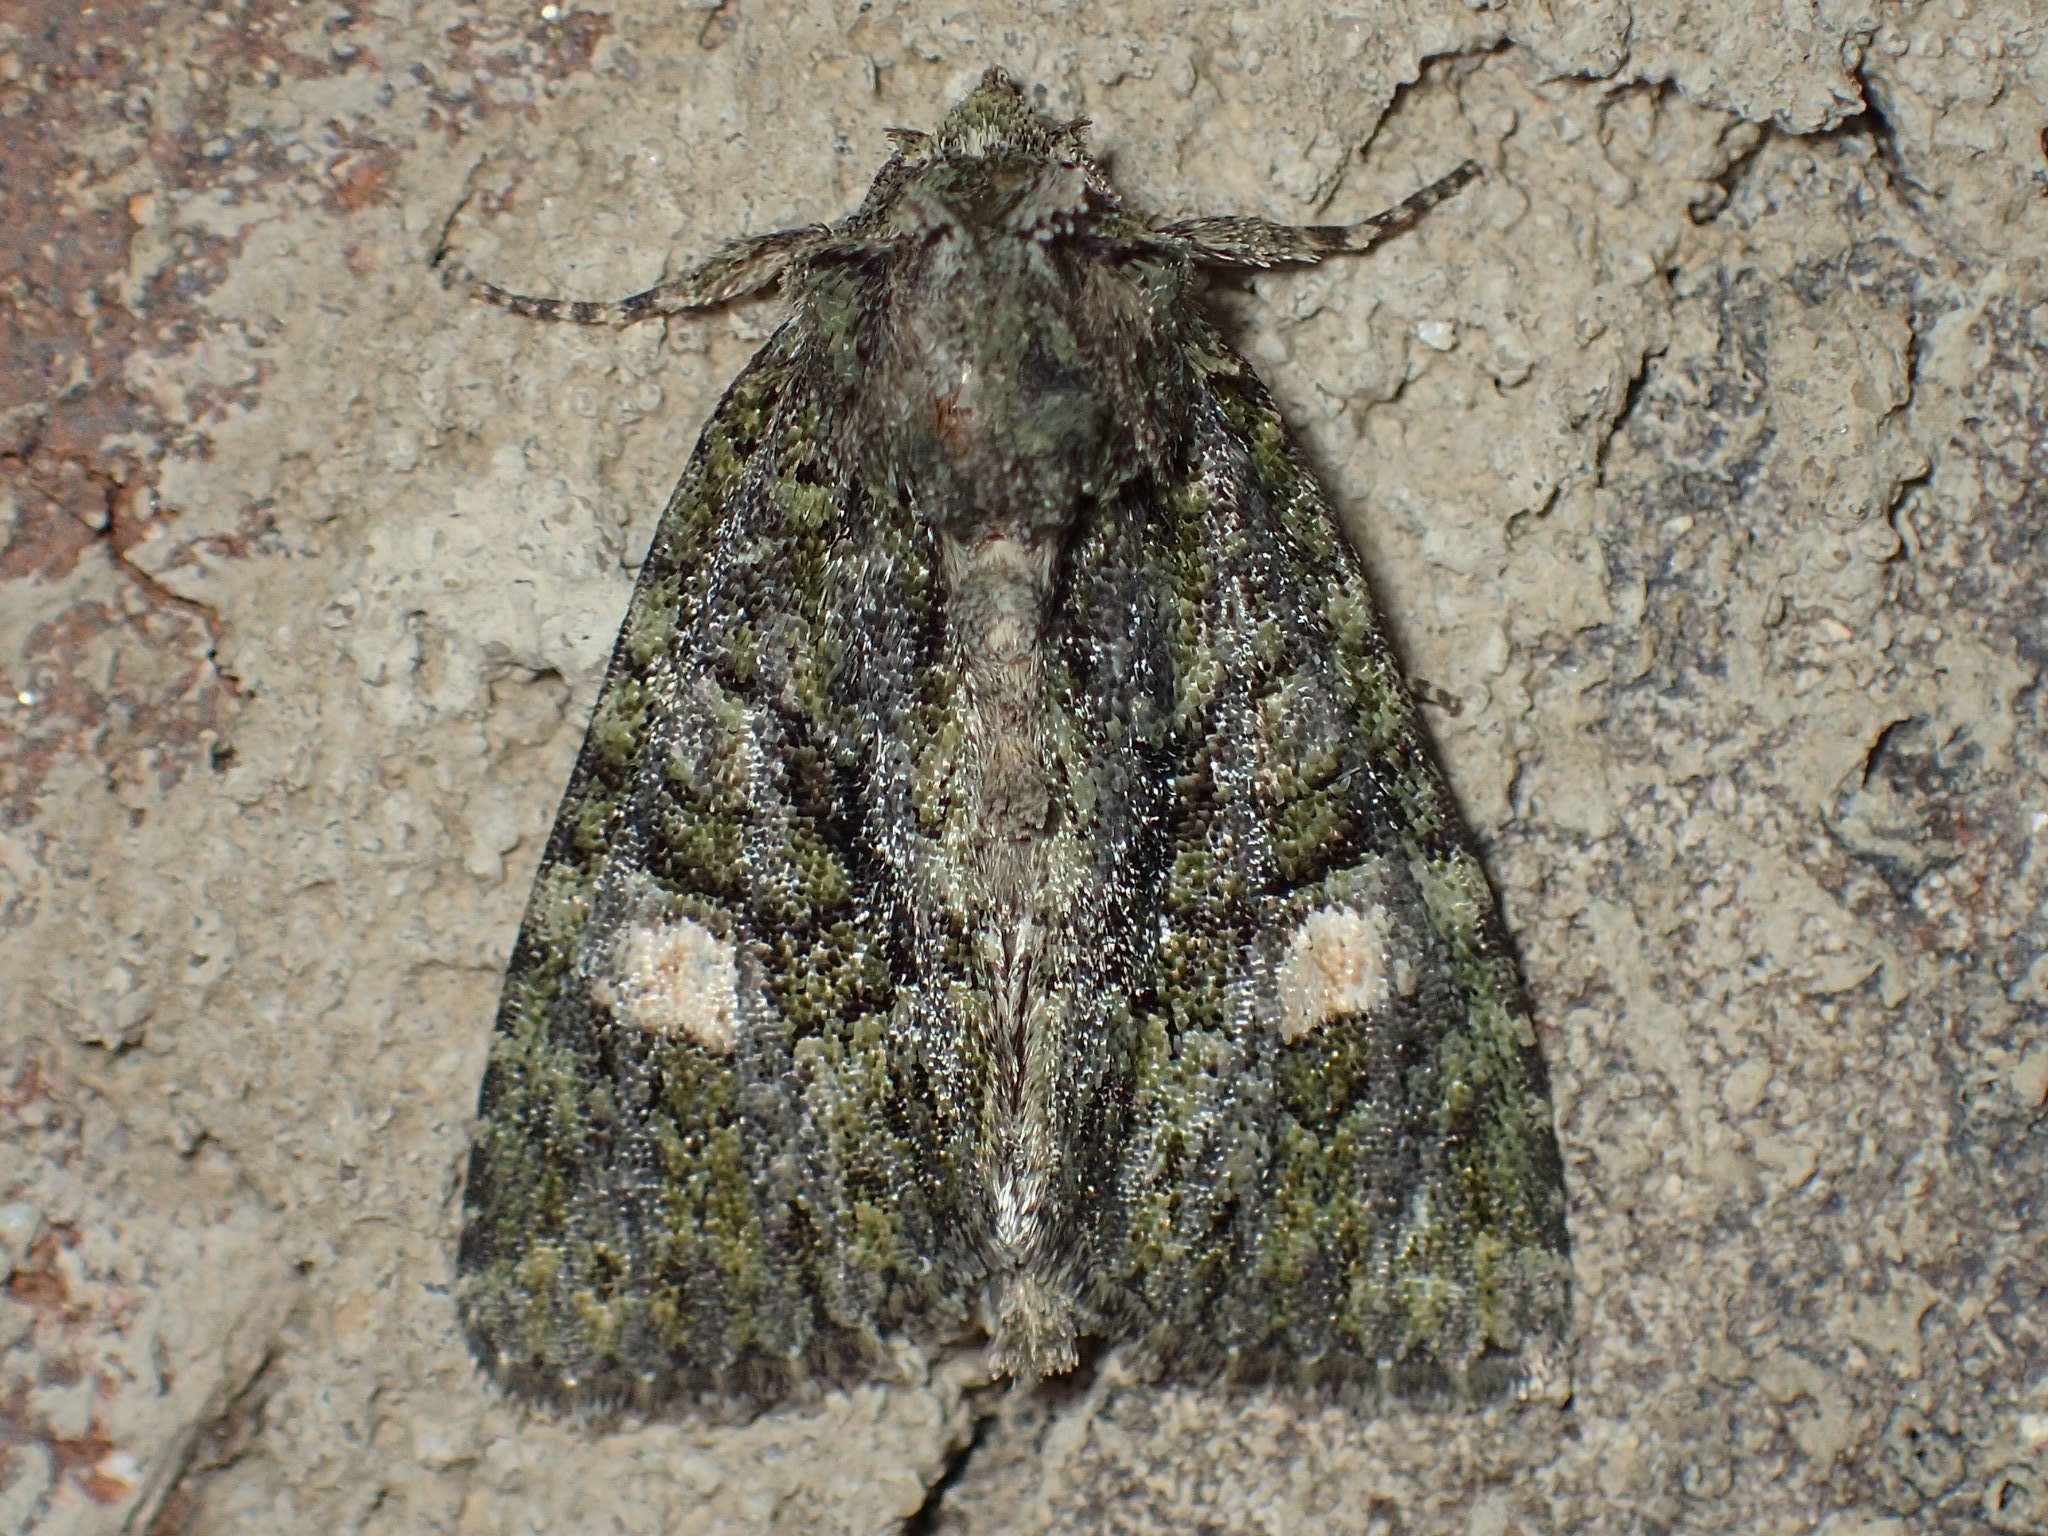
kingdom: Animalia
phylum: Arthropoda
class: Insecta
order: Lepidoptera
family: Noctuidae
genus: Phosphila
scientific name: Phosphila miselioides
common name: Spotted phosphila moth
